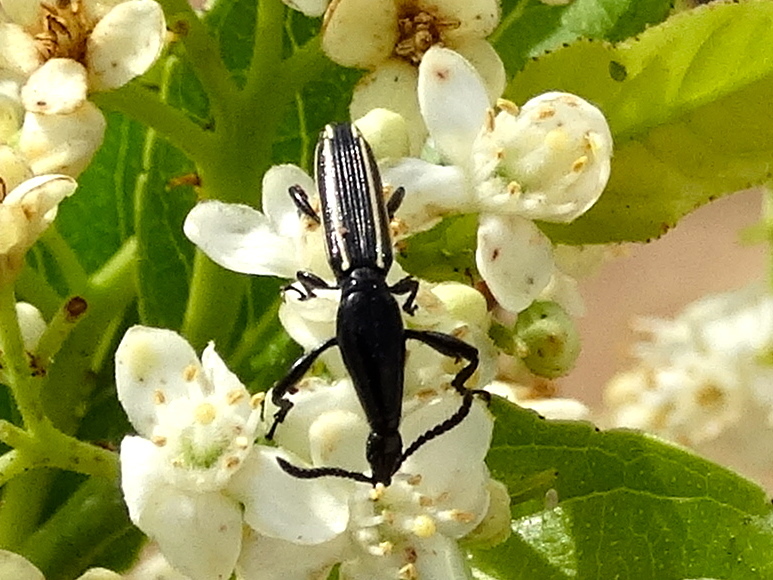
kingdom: Animalia
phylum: Arthropoda
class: Insecta
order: Coleoptera
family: Brentidae
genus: Brentus
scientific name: Brentus
